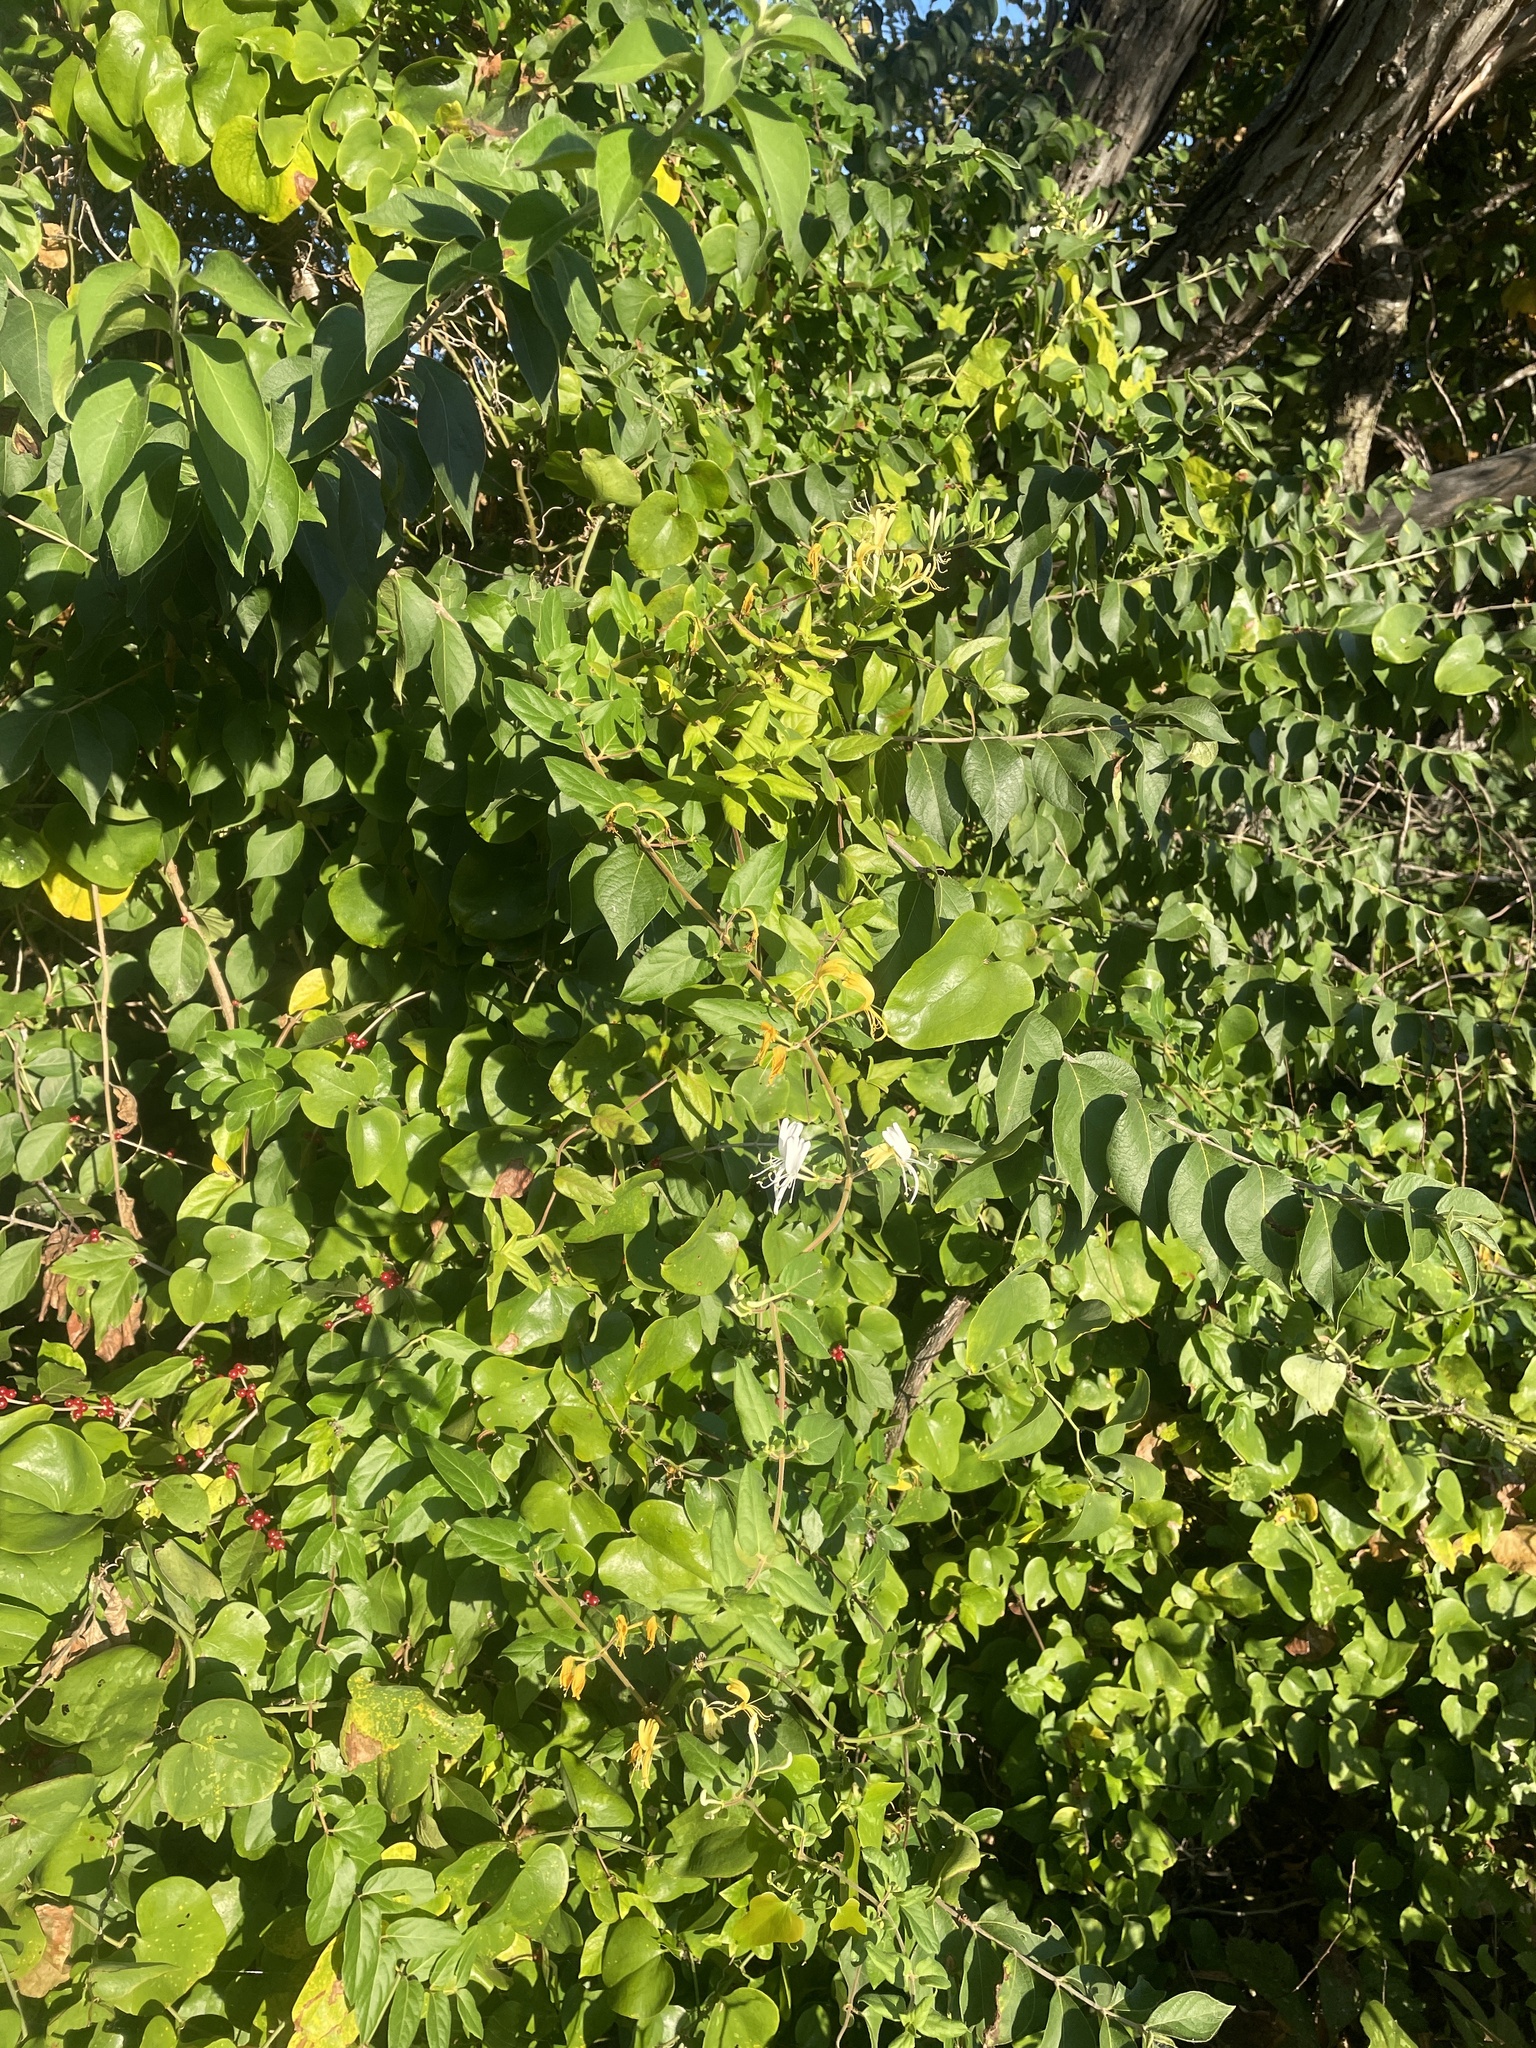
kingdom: Plantae
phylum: Tracheophyta
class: Magnoliopsida
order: Dipsacales
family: Caprifoliaceae
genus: Lonicera
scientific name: Lonicera japonica
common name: Japanese honeysuckle
